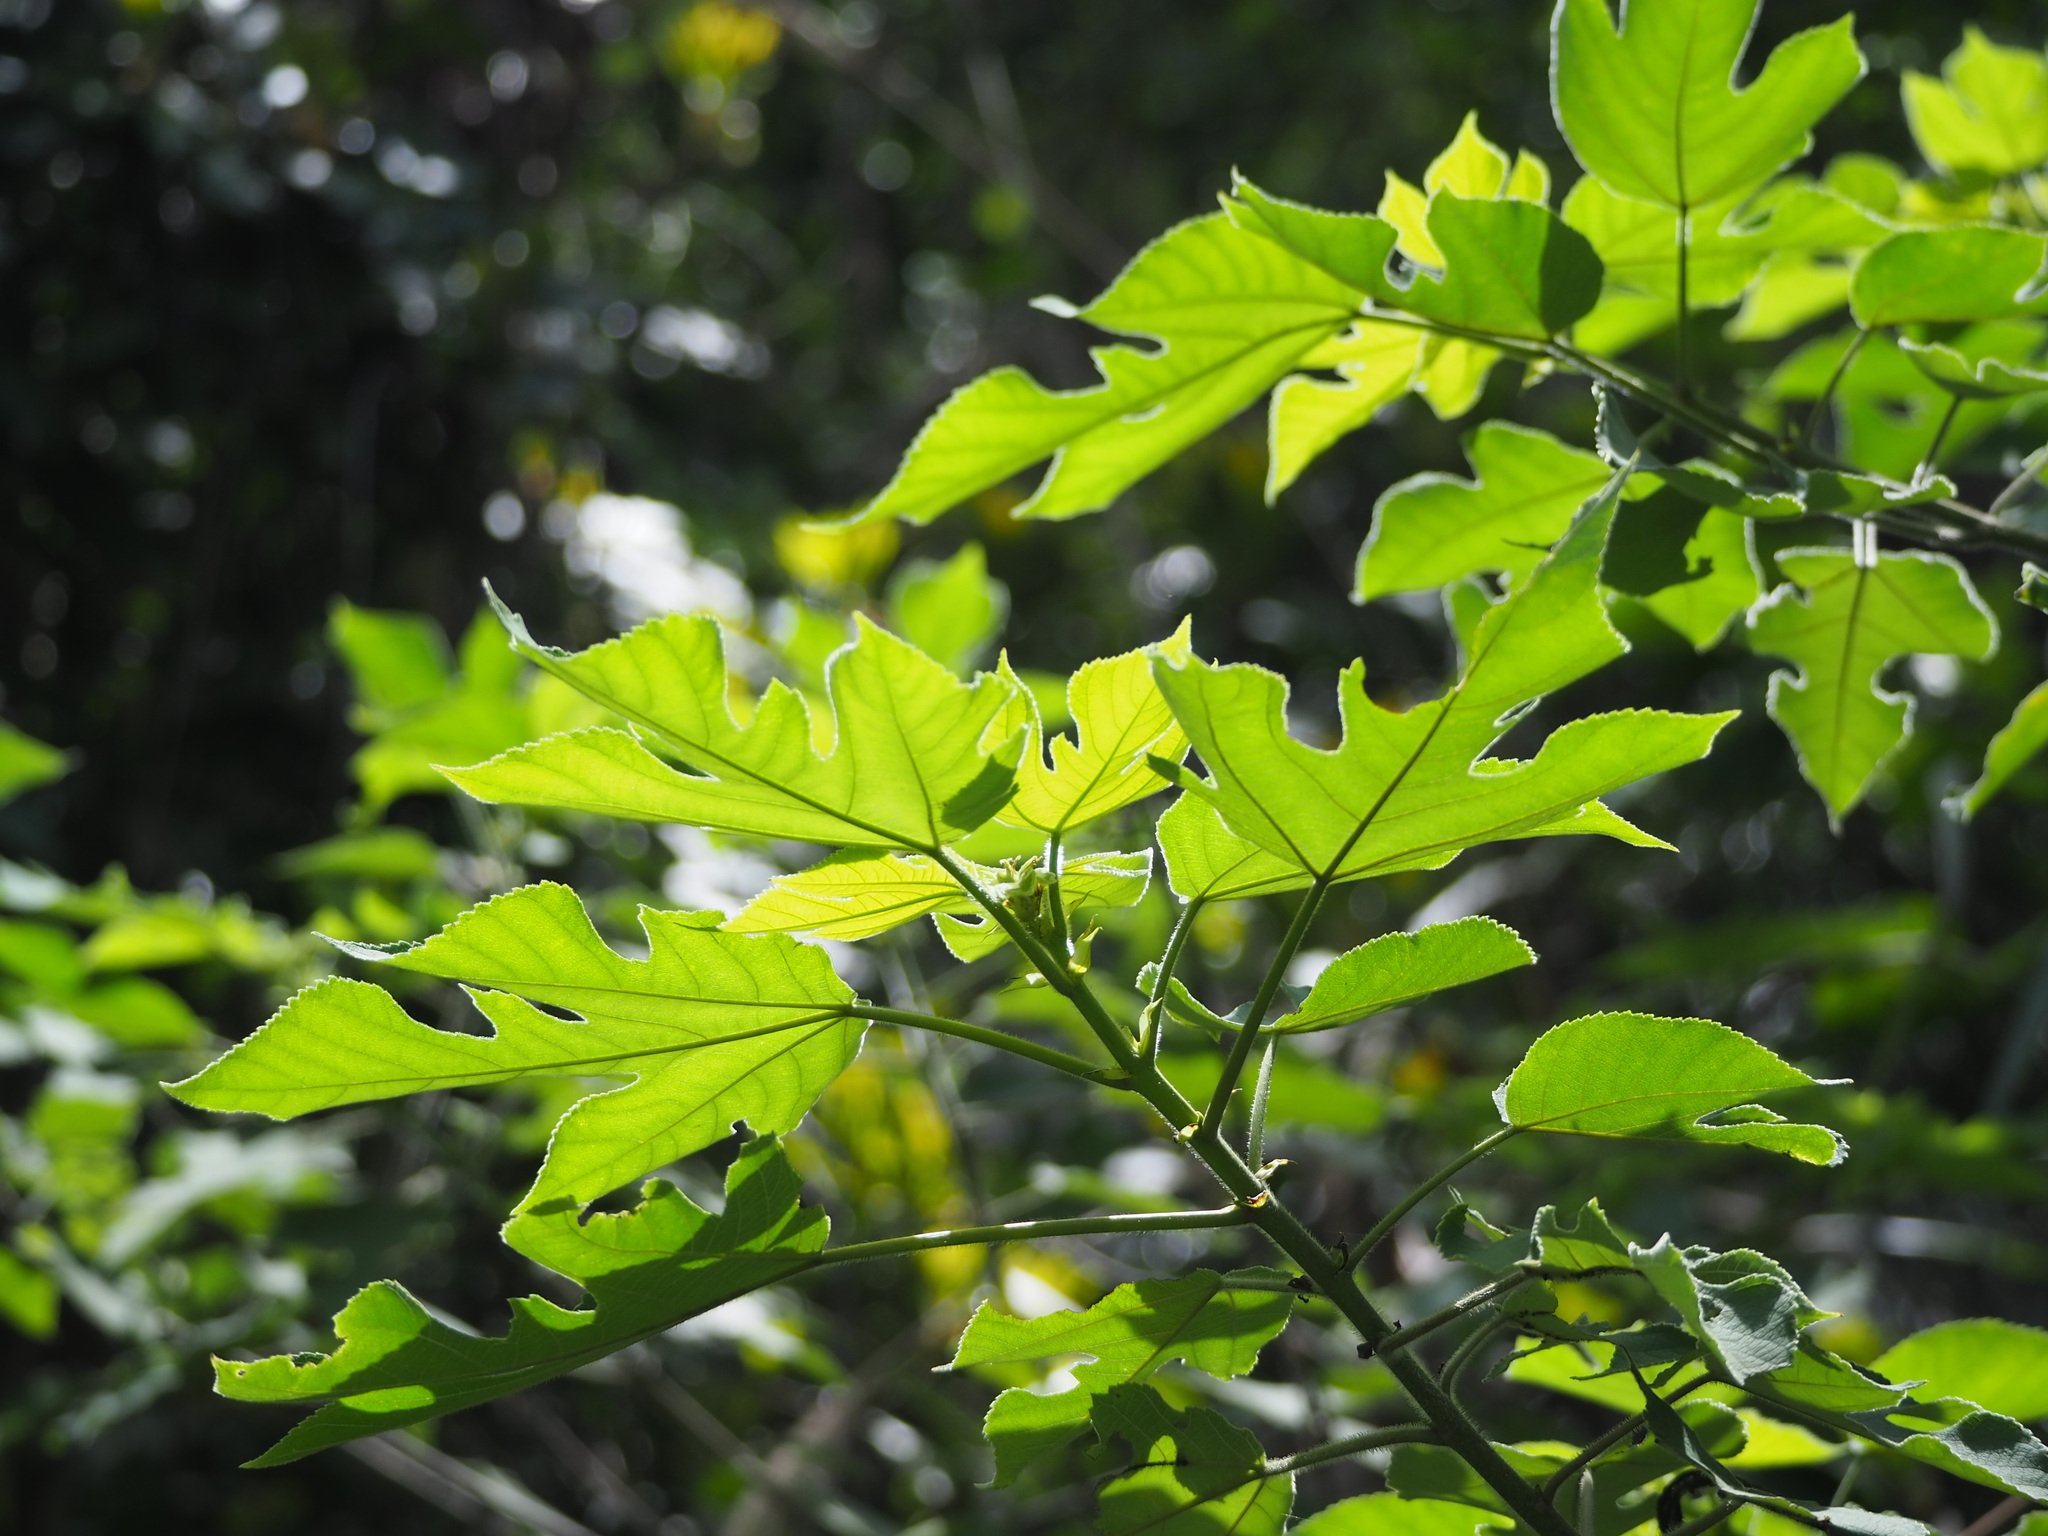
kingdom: Plantae
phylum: Tracheophyta
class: Magnoliopsida
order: Rosales
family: Moraceae
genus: Broussonetia
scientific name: Broussonetia papyrifera
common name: Paper mulberry
